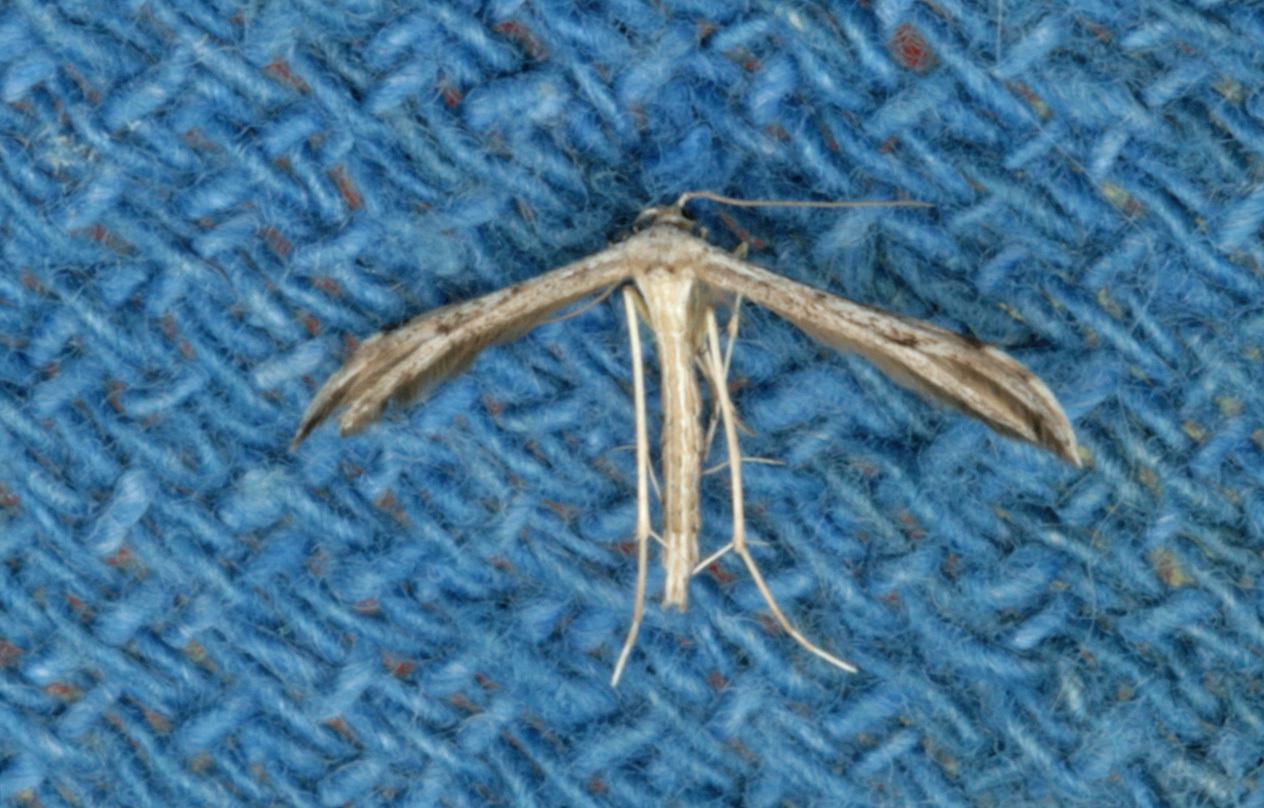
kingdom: Animalia
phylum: Arthropoda
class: Insecta
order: Lepidoptera
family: Pterophoridae
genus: Pselnophorus
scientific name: Pselnophorus belfragei
